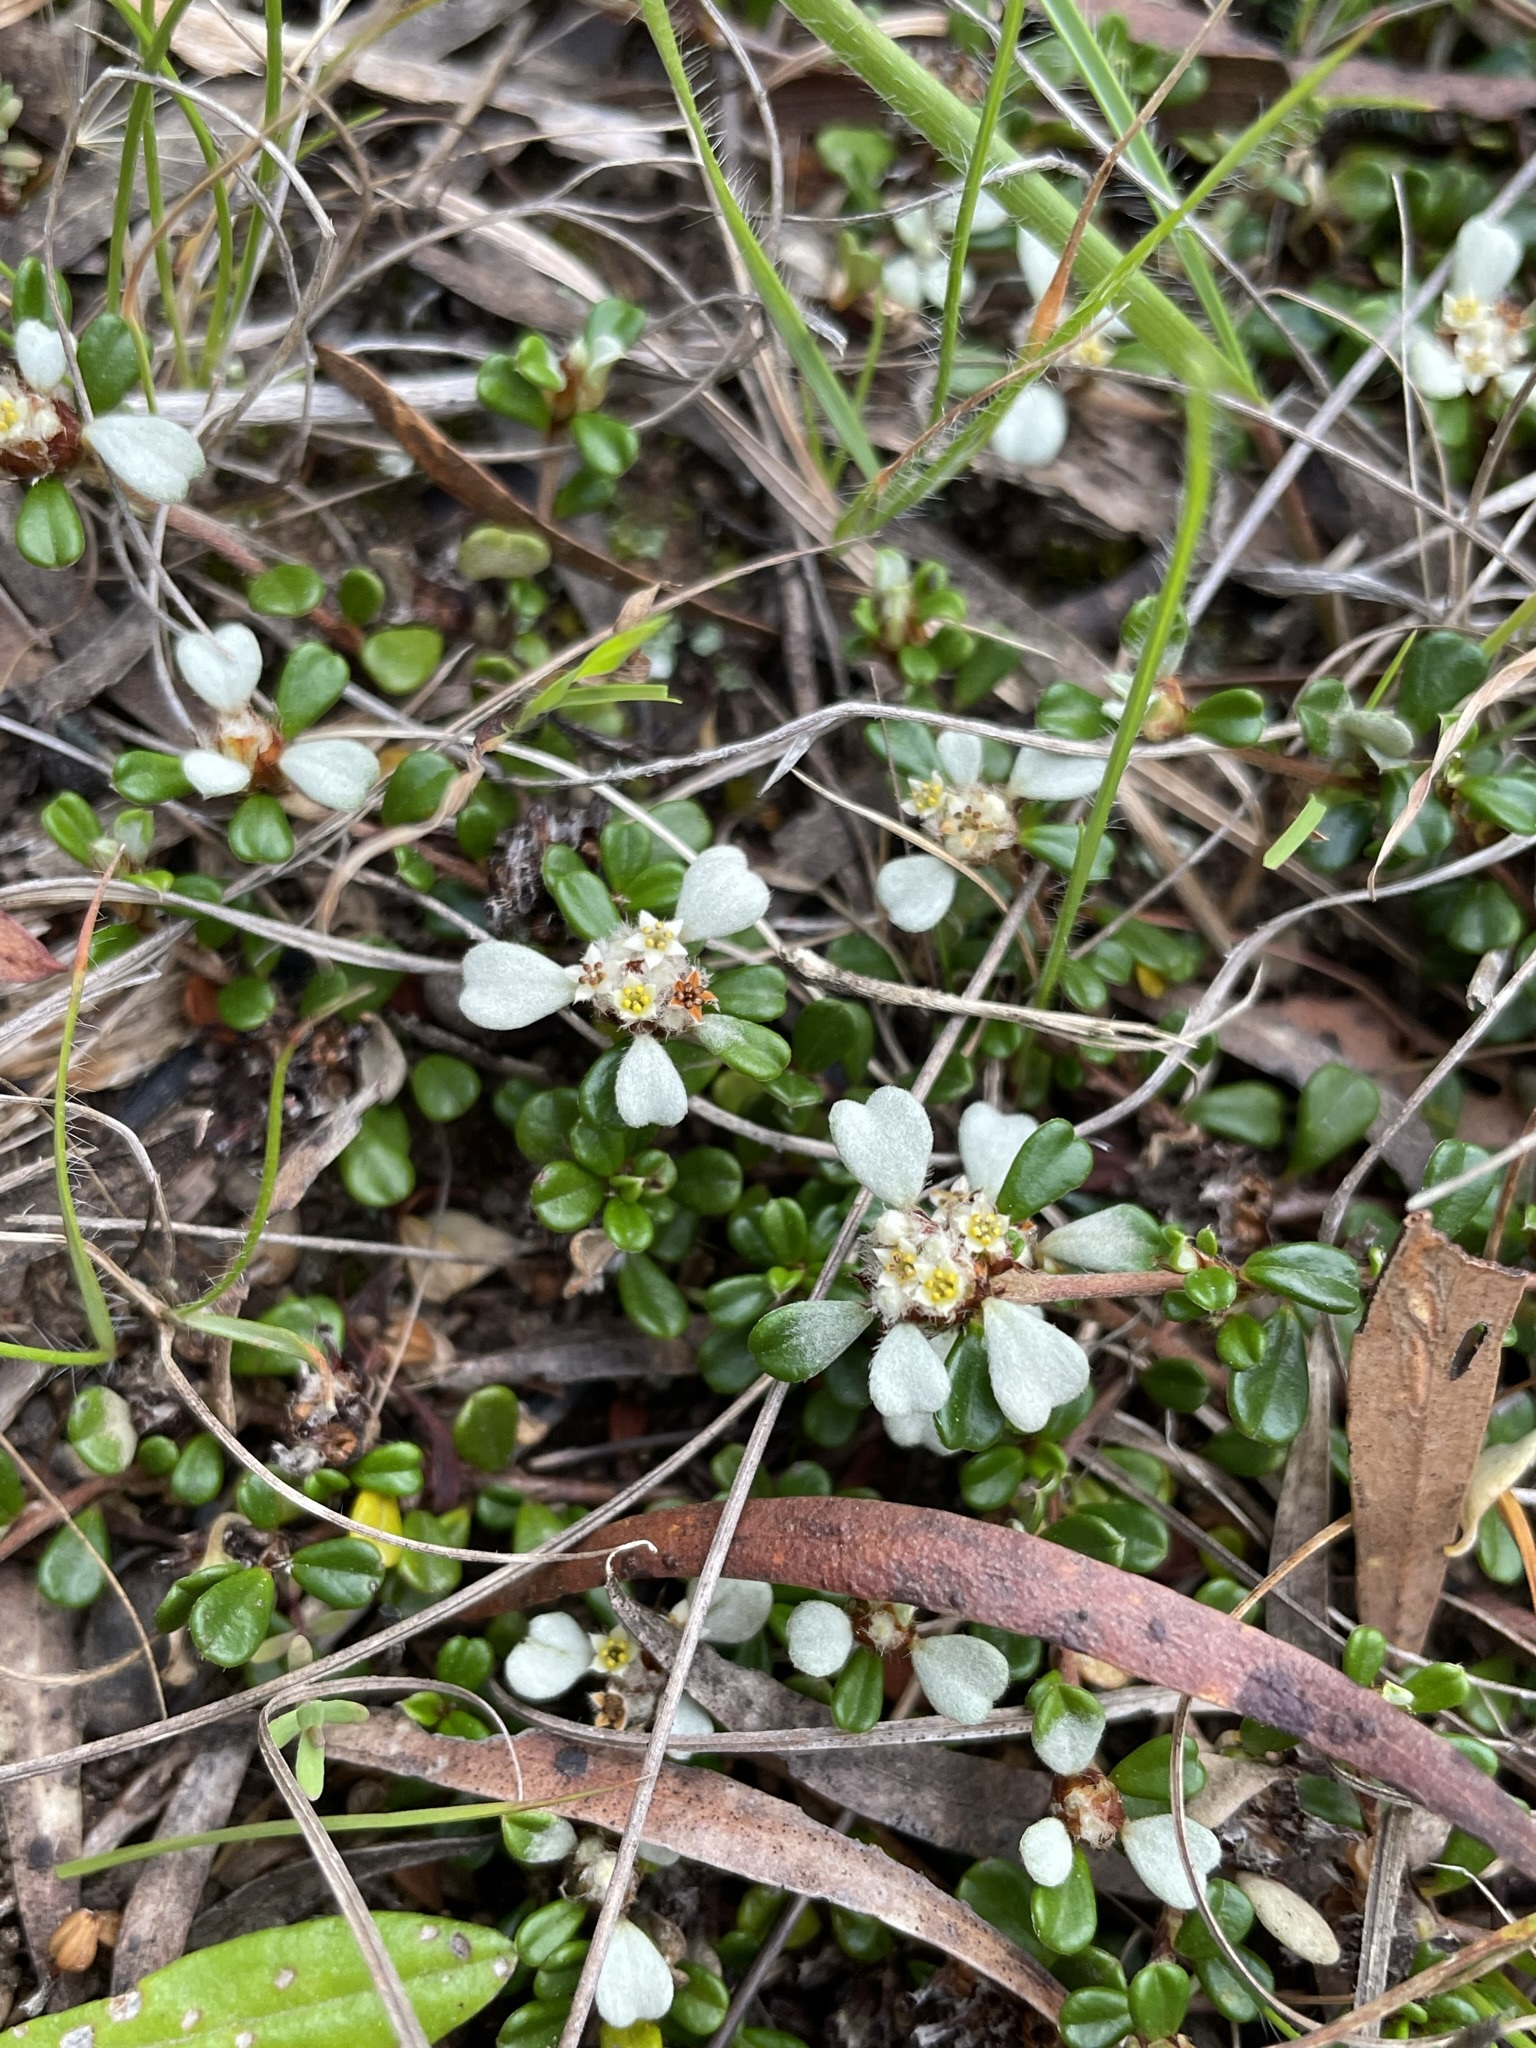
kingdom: Plantae
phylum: Tracheophyta
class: Magnoliopsida
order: Rosales
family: Rhamnaceae
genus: Stenanthemum
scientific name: Stenanthemum pimeleoides
